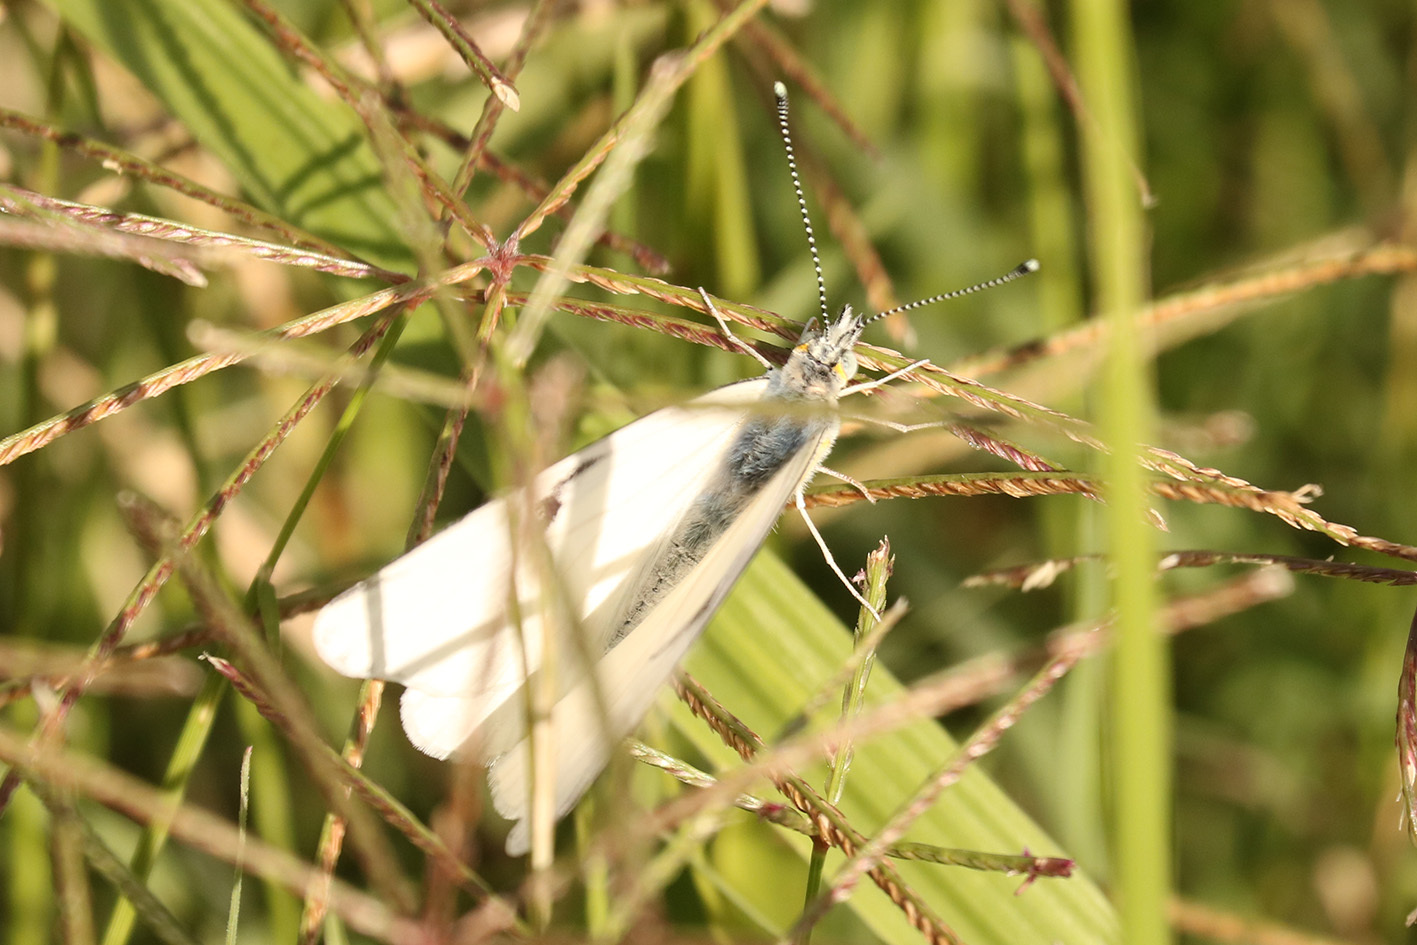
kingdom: Animalia
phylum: Arthropoda
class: Insecta
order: Lepidoptera
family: Pieridae
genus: Tatochila
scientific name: Tatochila mercedis
